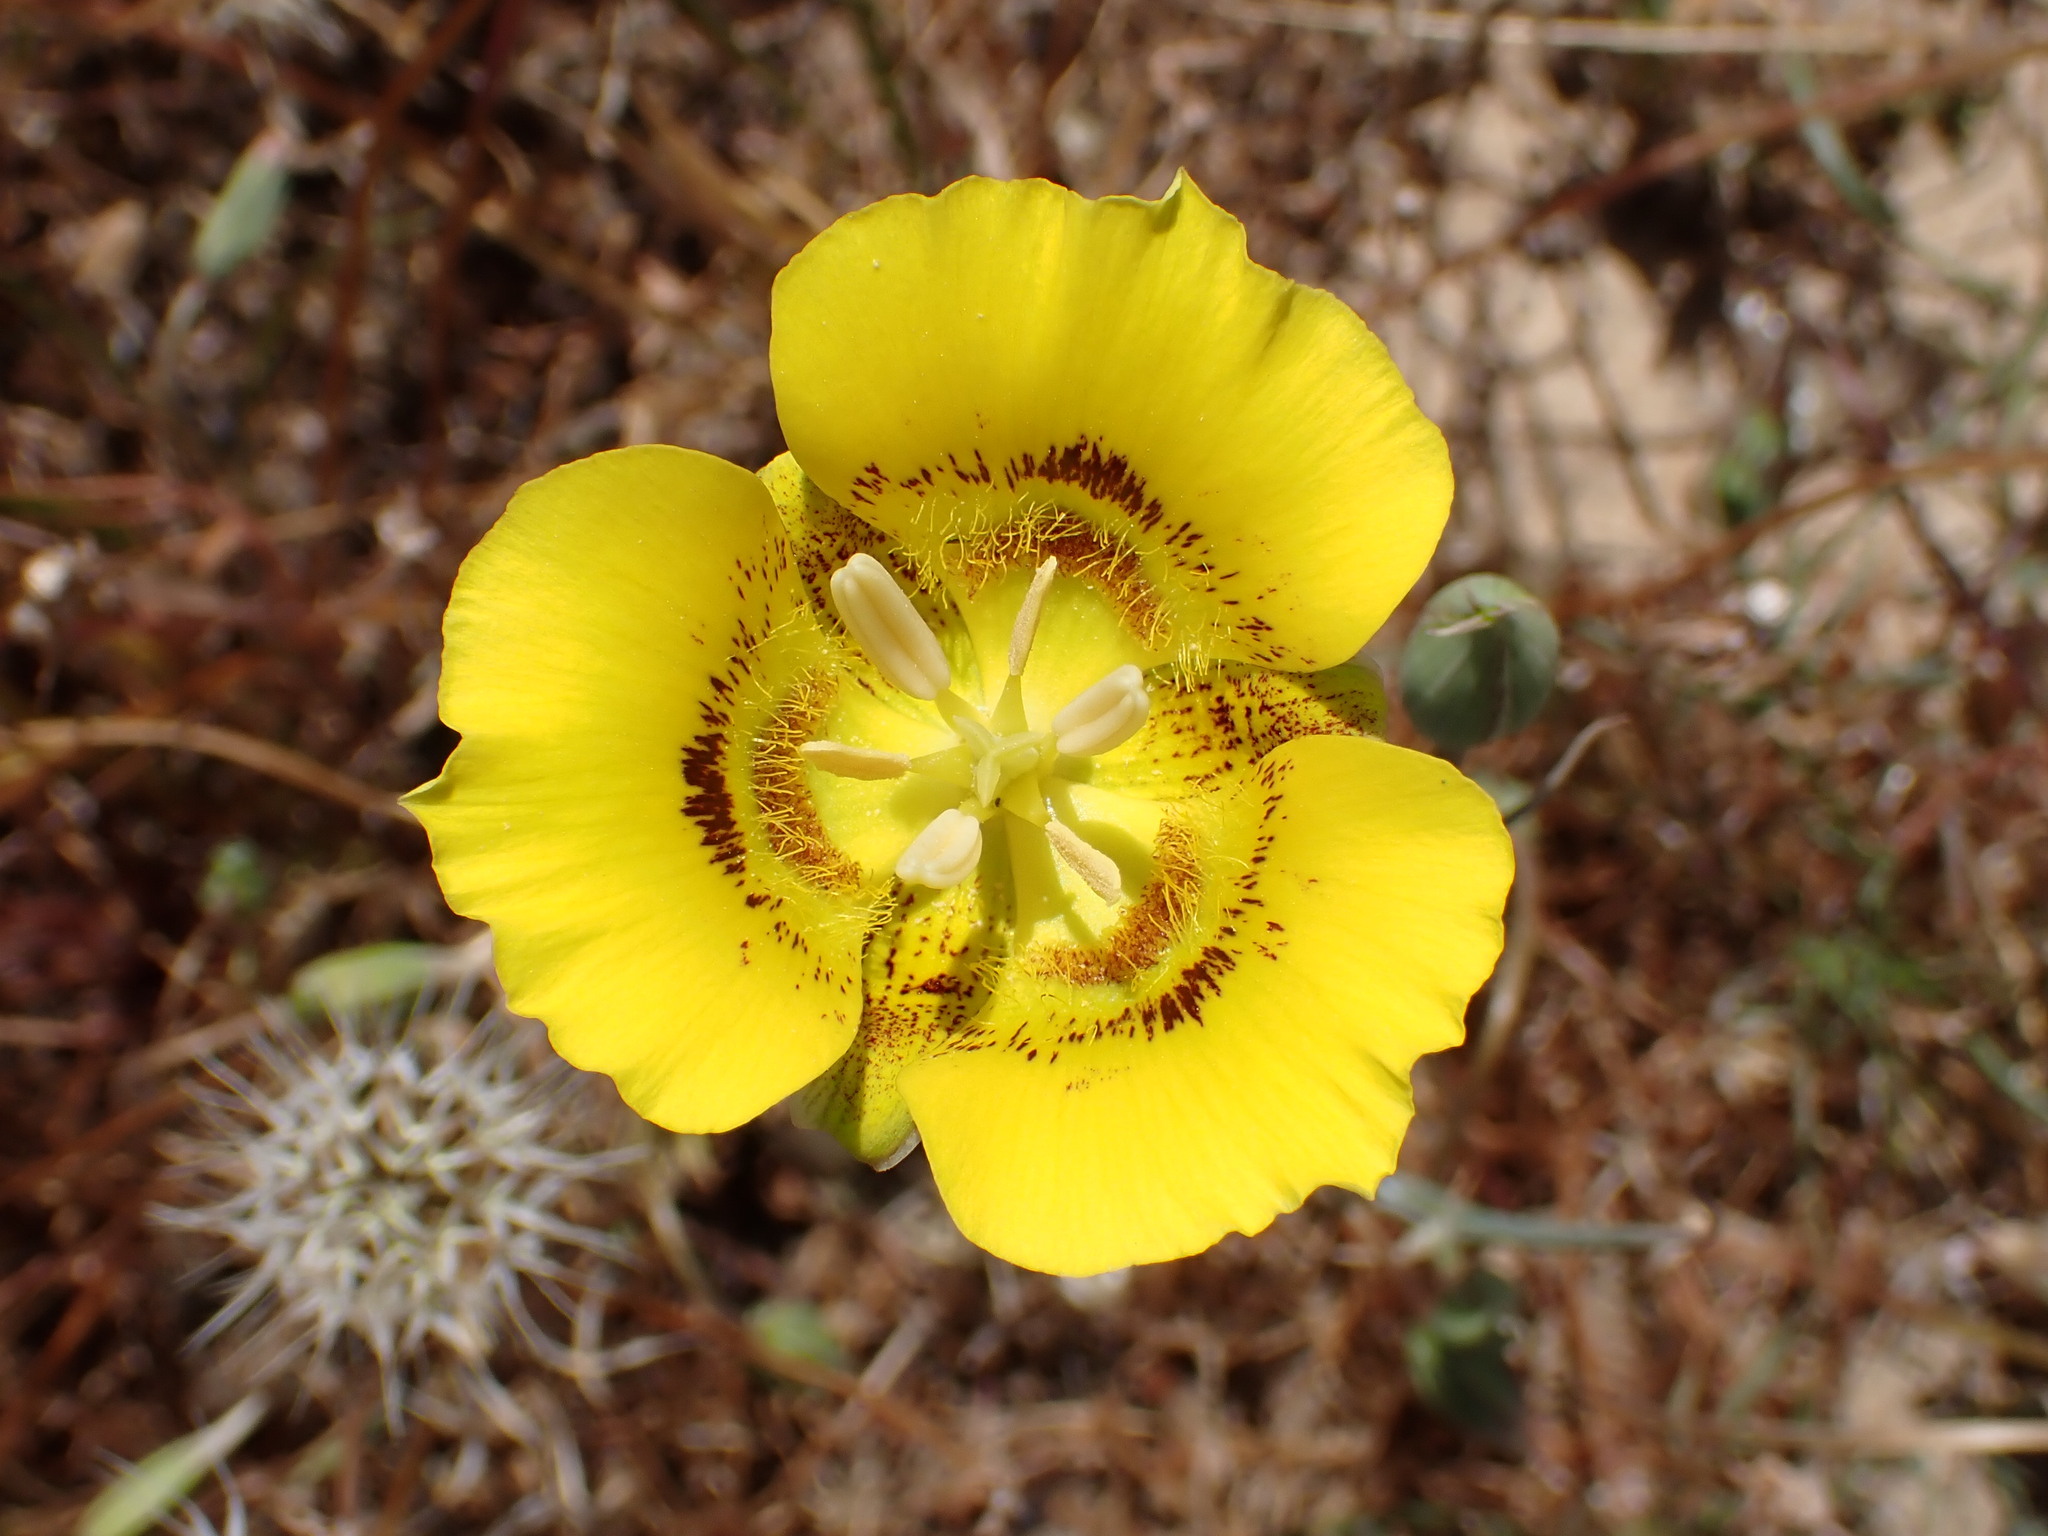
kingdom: Plantae
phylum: Tracheophyta
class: Liliopsida
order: Liliales
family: Liliaceae
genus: Calochortus
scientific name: Calochortus luteus
